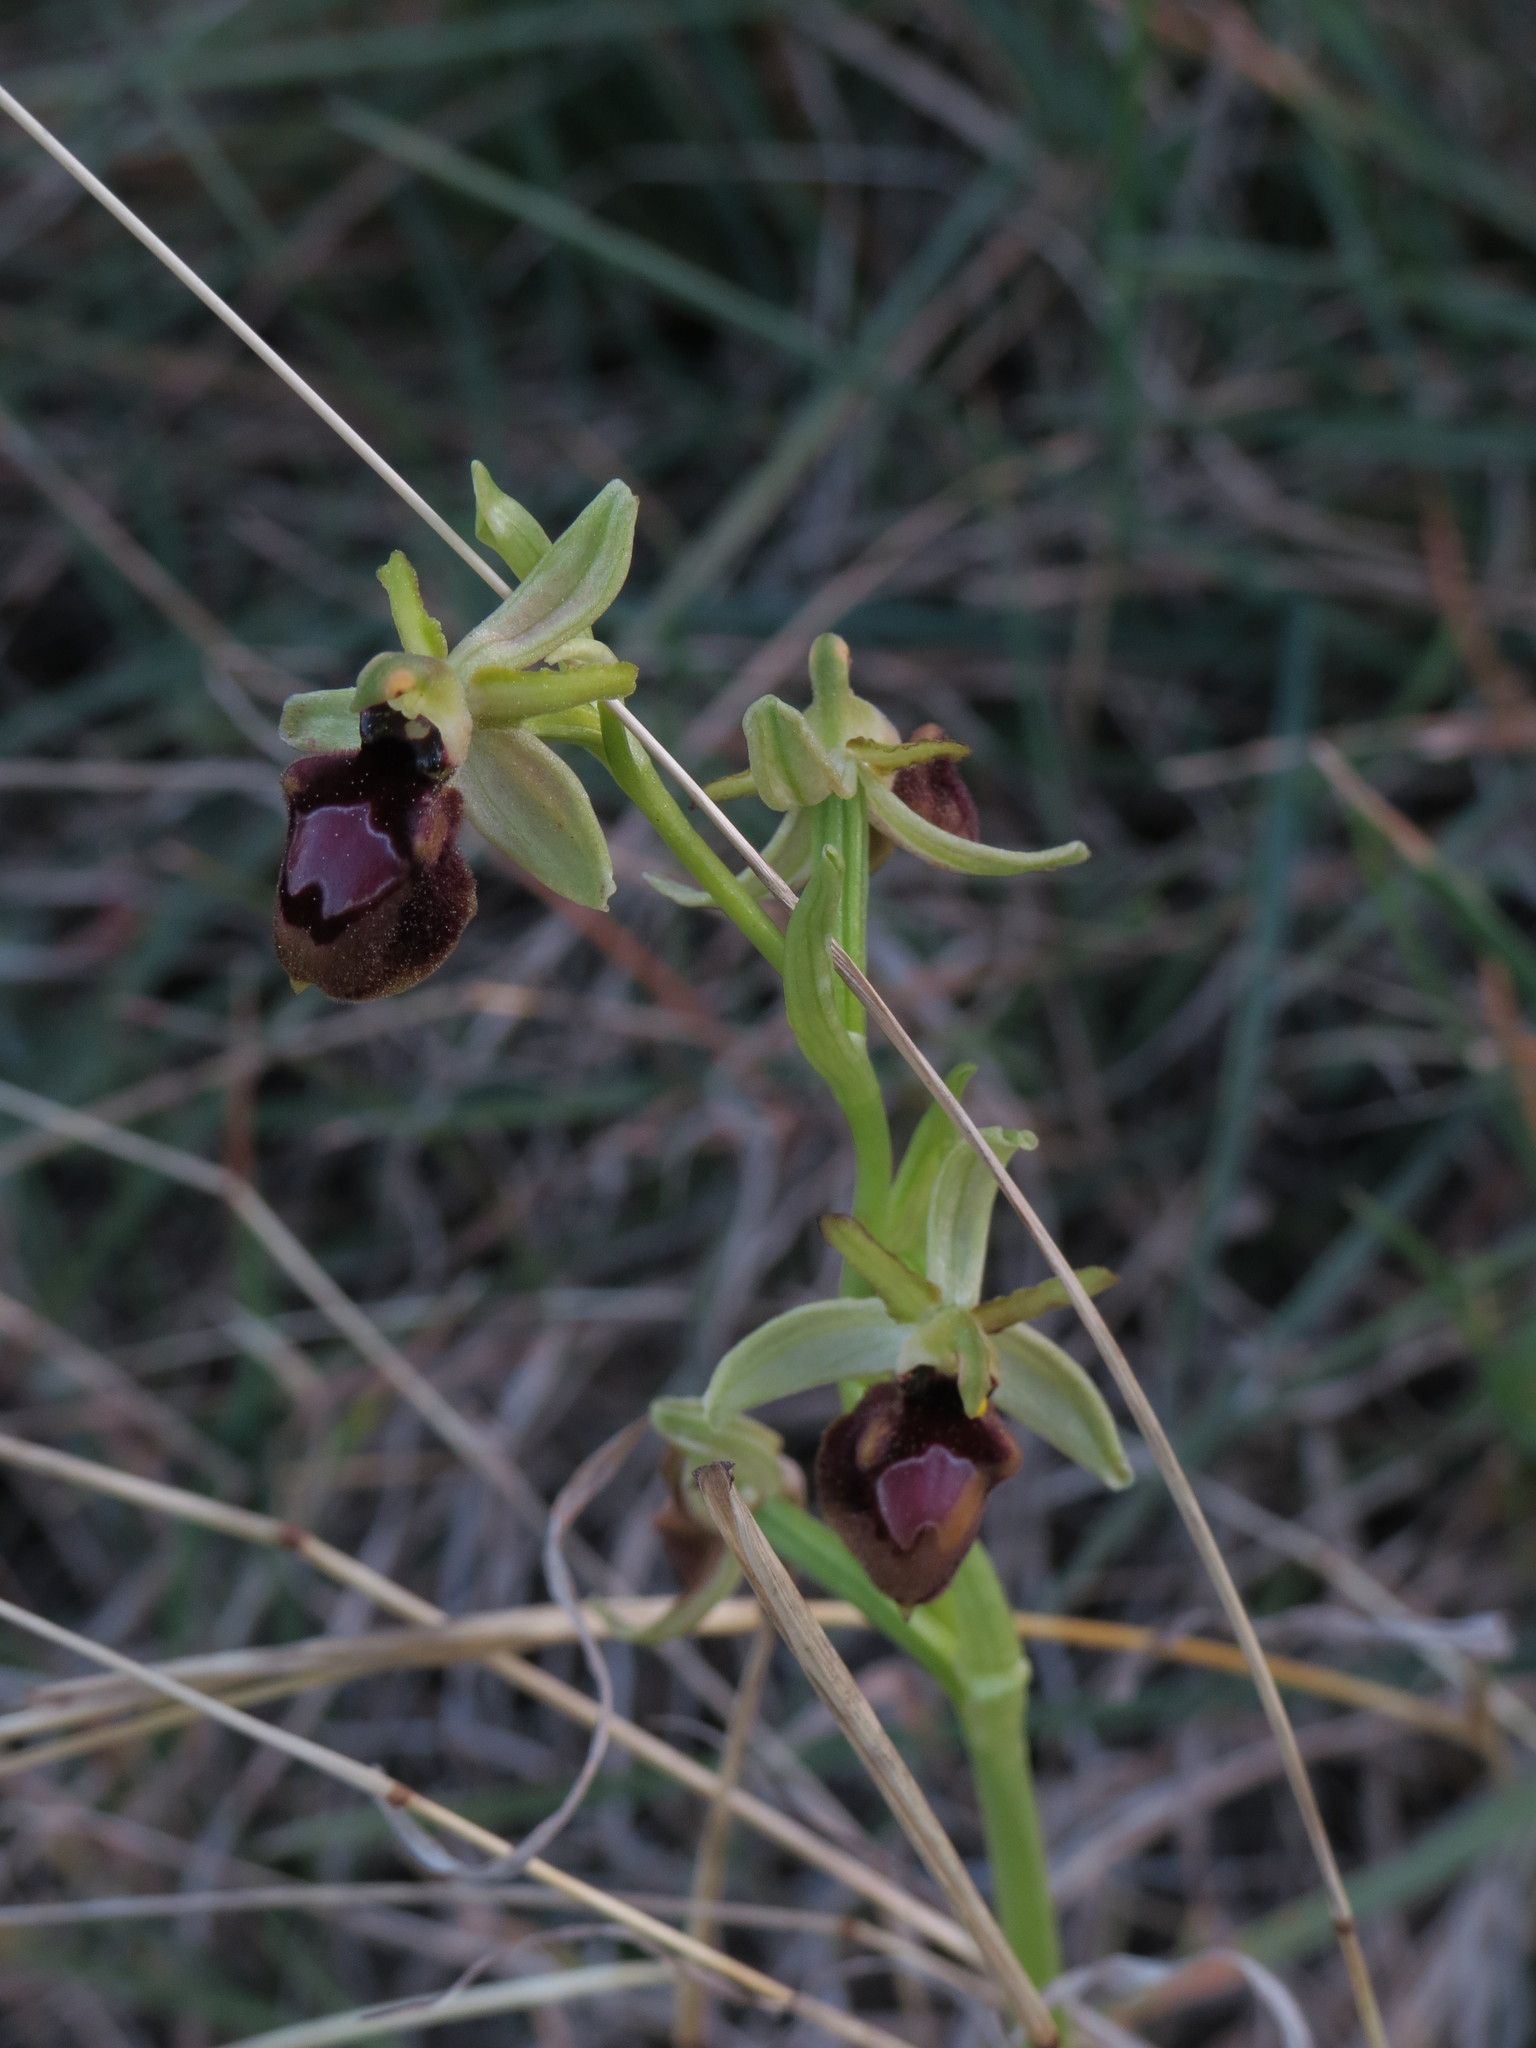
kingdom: Plantae
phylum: Tracheophyta
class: Liliopsida
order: Asparagales
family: Orchidaceae
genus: Ophrys
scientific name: Ophrys arachnitiformis
